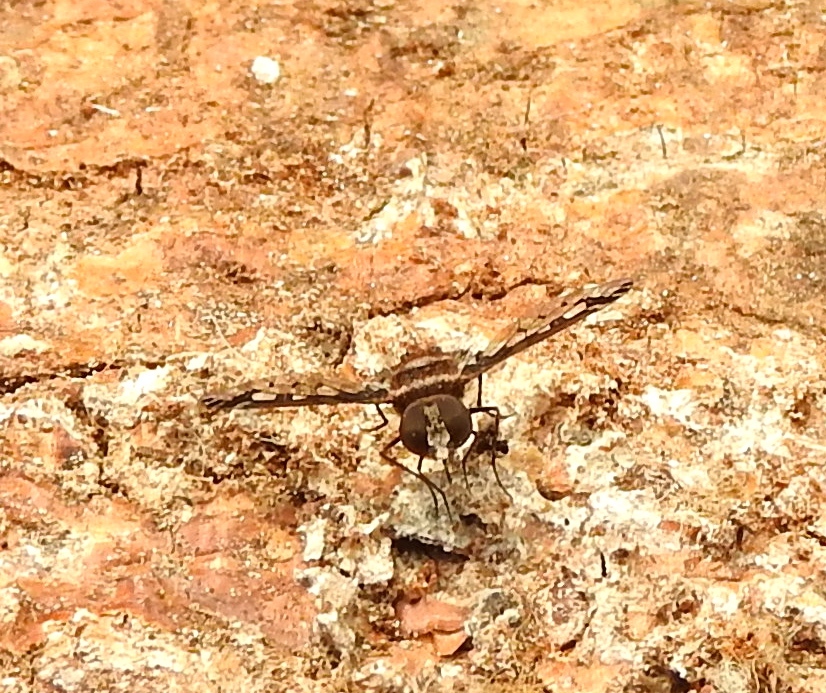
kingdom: Animalia
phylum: Arthropoda
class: Insecta
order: Diptera
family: Bombyliidae
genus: Lepidanthrax
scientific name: Lepidanthrax
